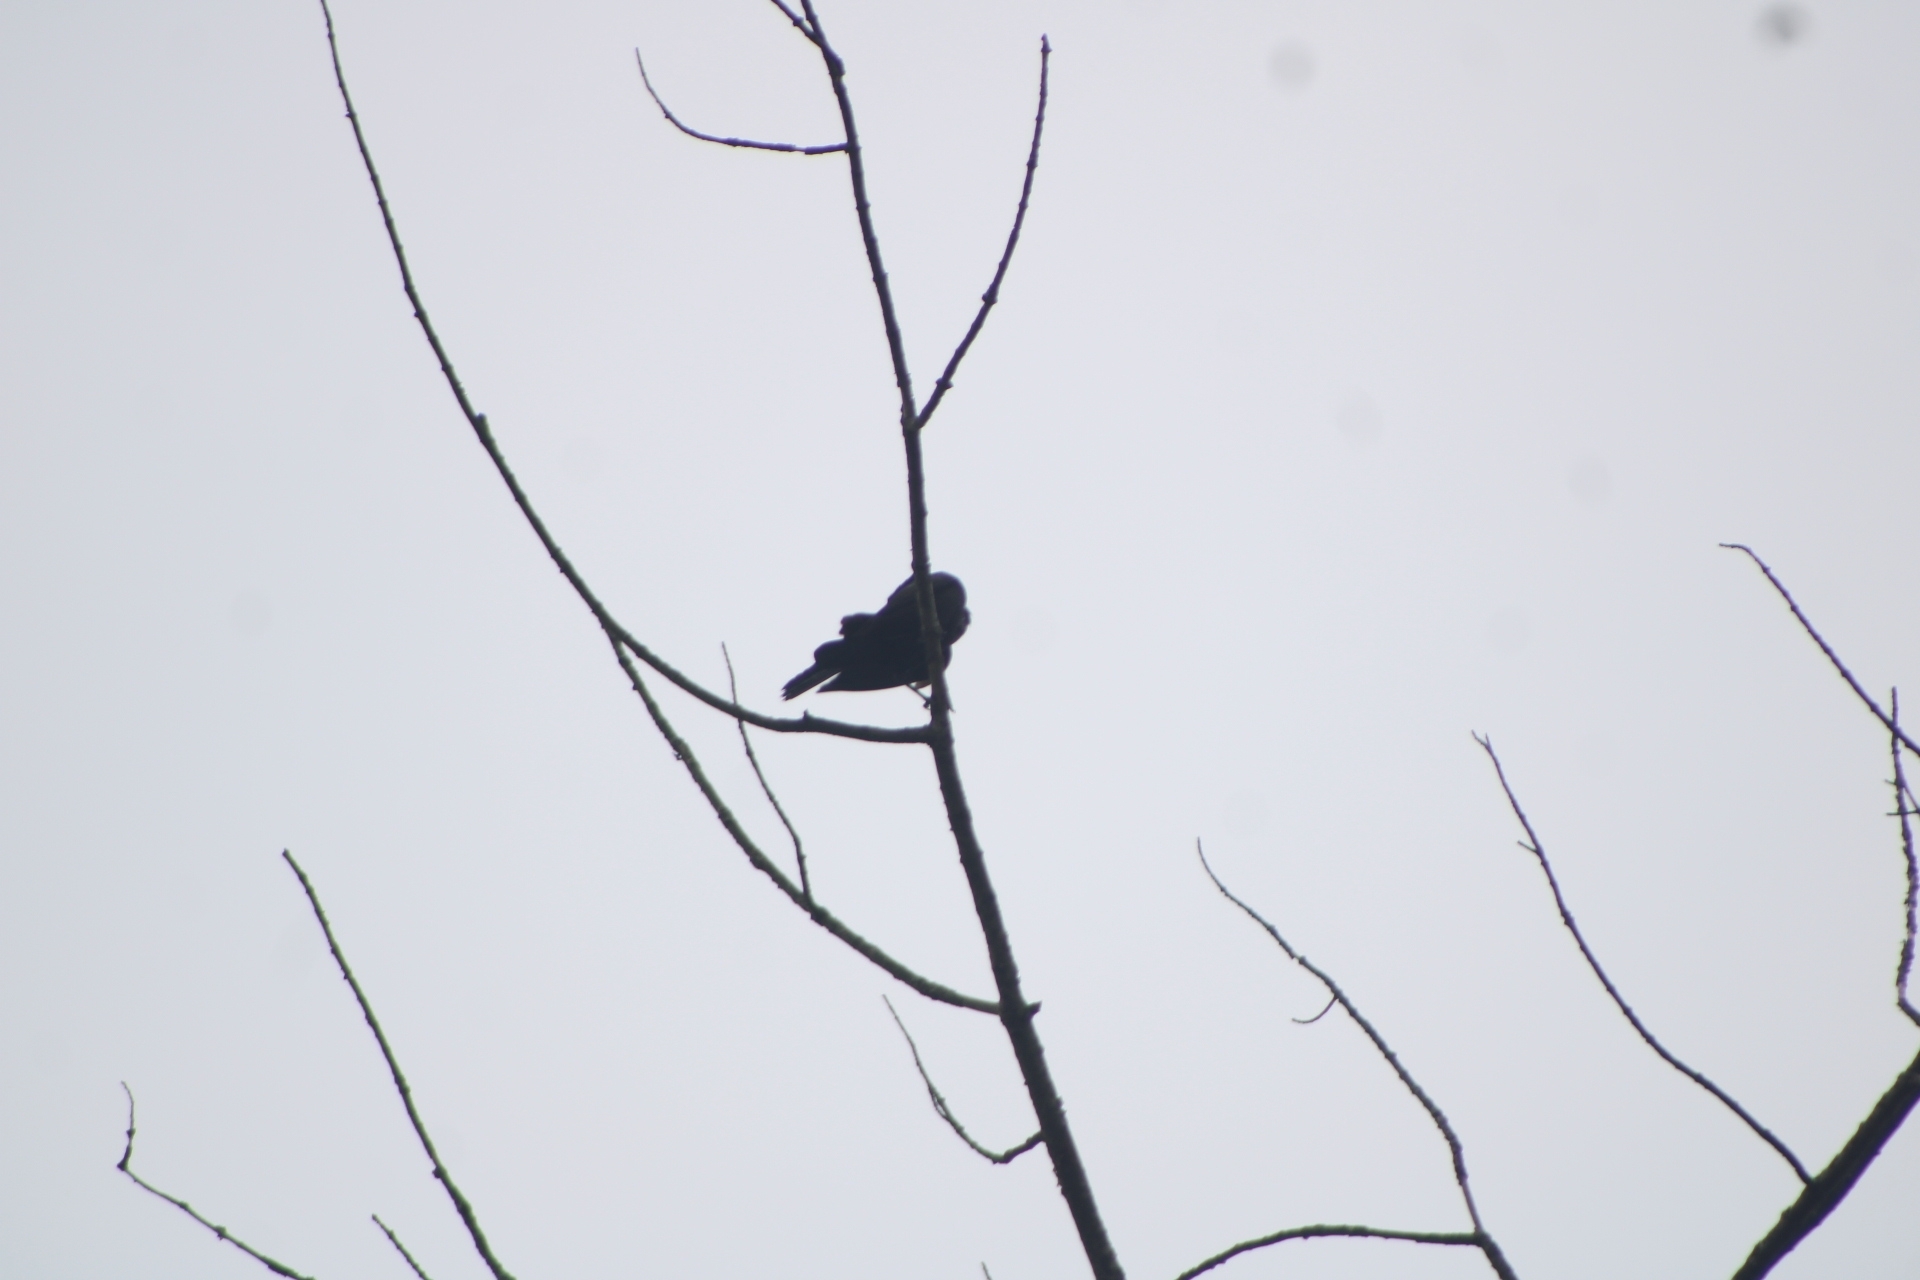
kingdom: Animalia
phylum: Chordata
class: Aves
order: Passeriformes
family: Icteridae
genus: Quiscalus
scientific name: Quiscalus quiscula
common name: Common grackle
